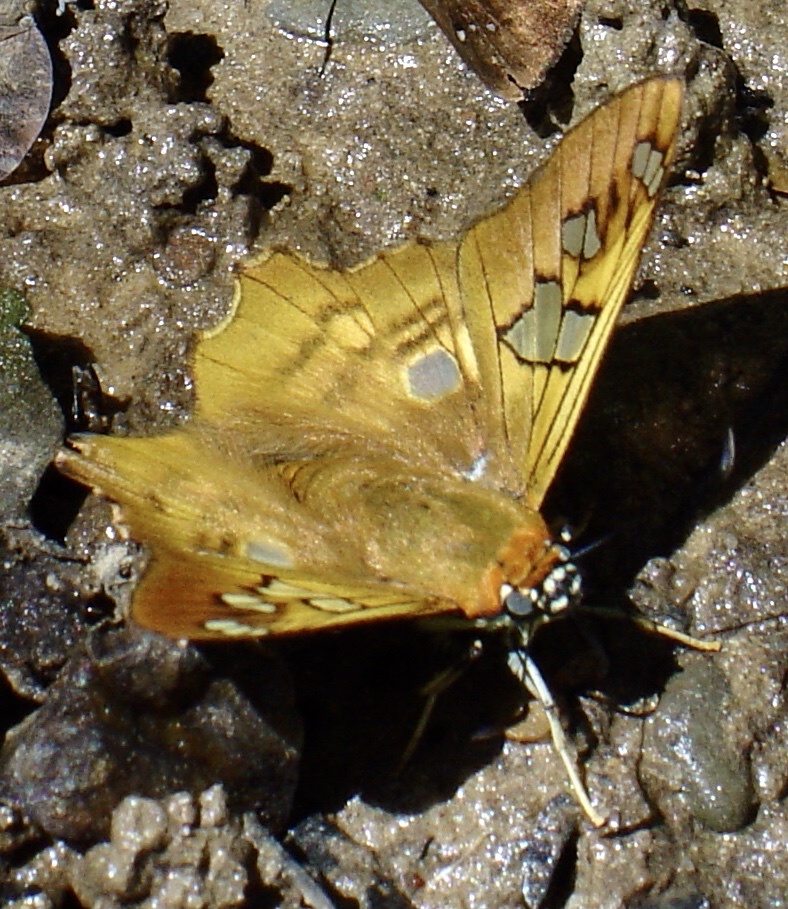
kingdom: Animalia
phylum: Arthropoda
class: Insecta
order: Lepidoptera
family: Hesperiidae
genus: Myscelus
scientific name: Myscelus phoronis
